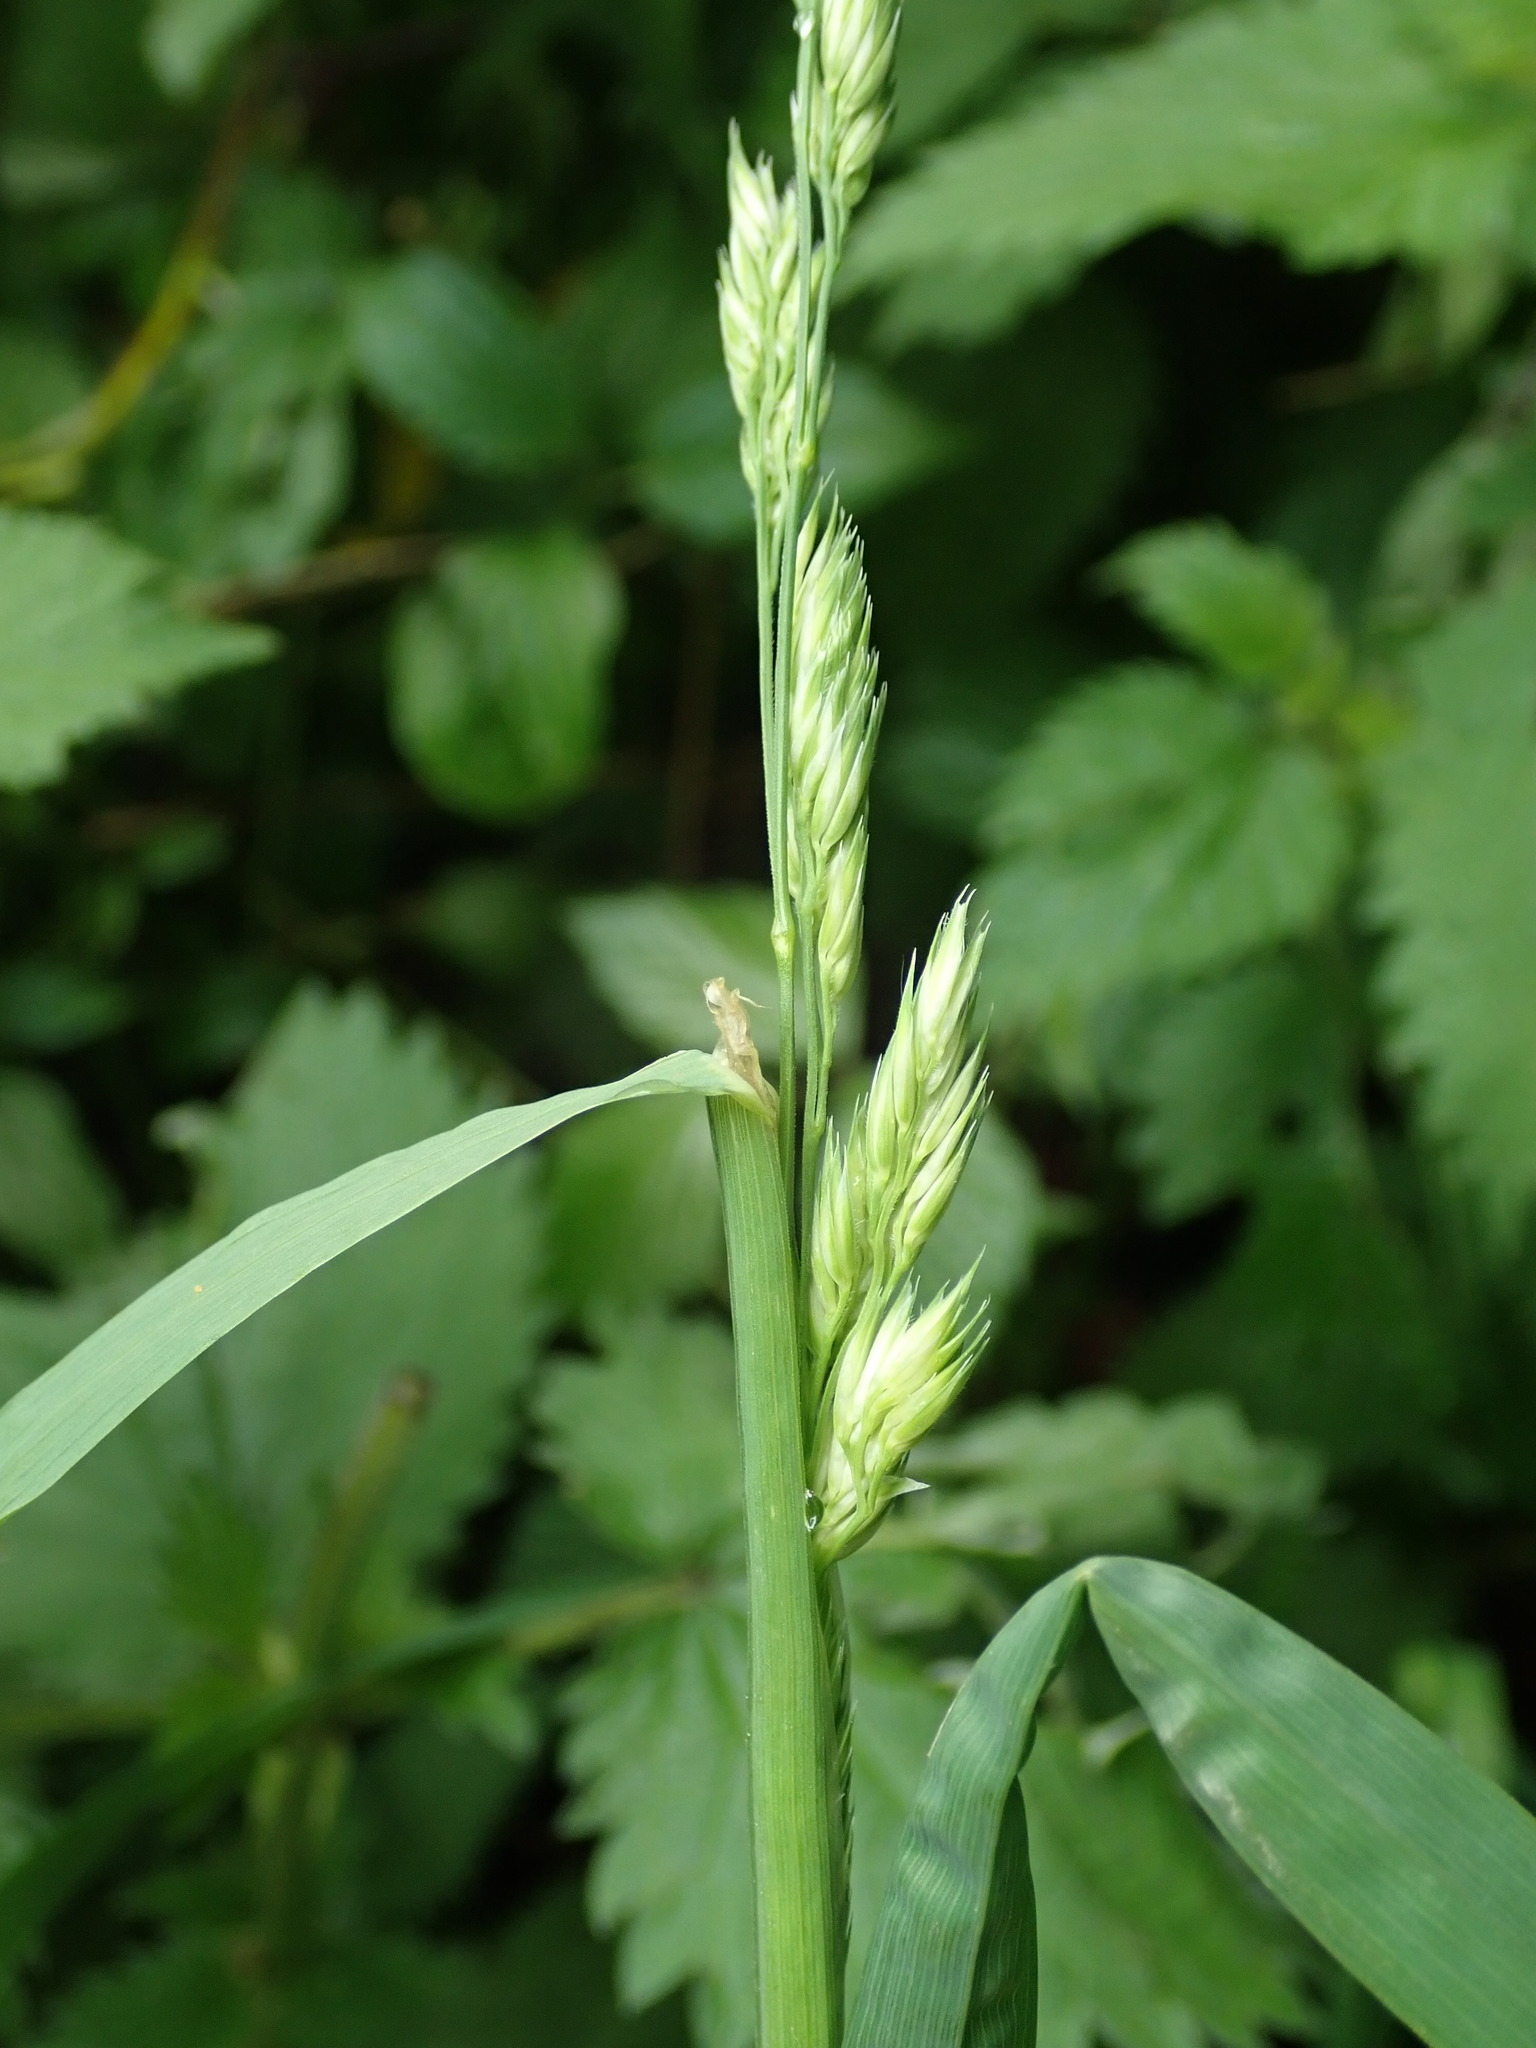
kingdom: Plantae
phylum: Tracheophyta
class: Liliopsida
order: Poales
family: Poaceae
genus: Dactylis
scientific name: Dactylis glomerata
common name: Orchardgrass
